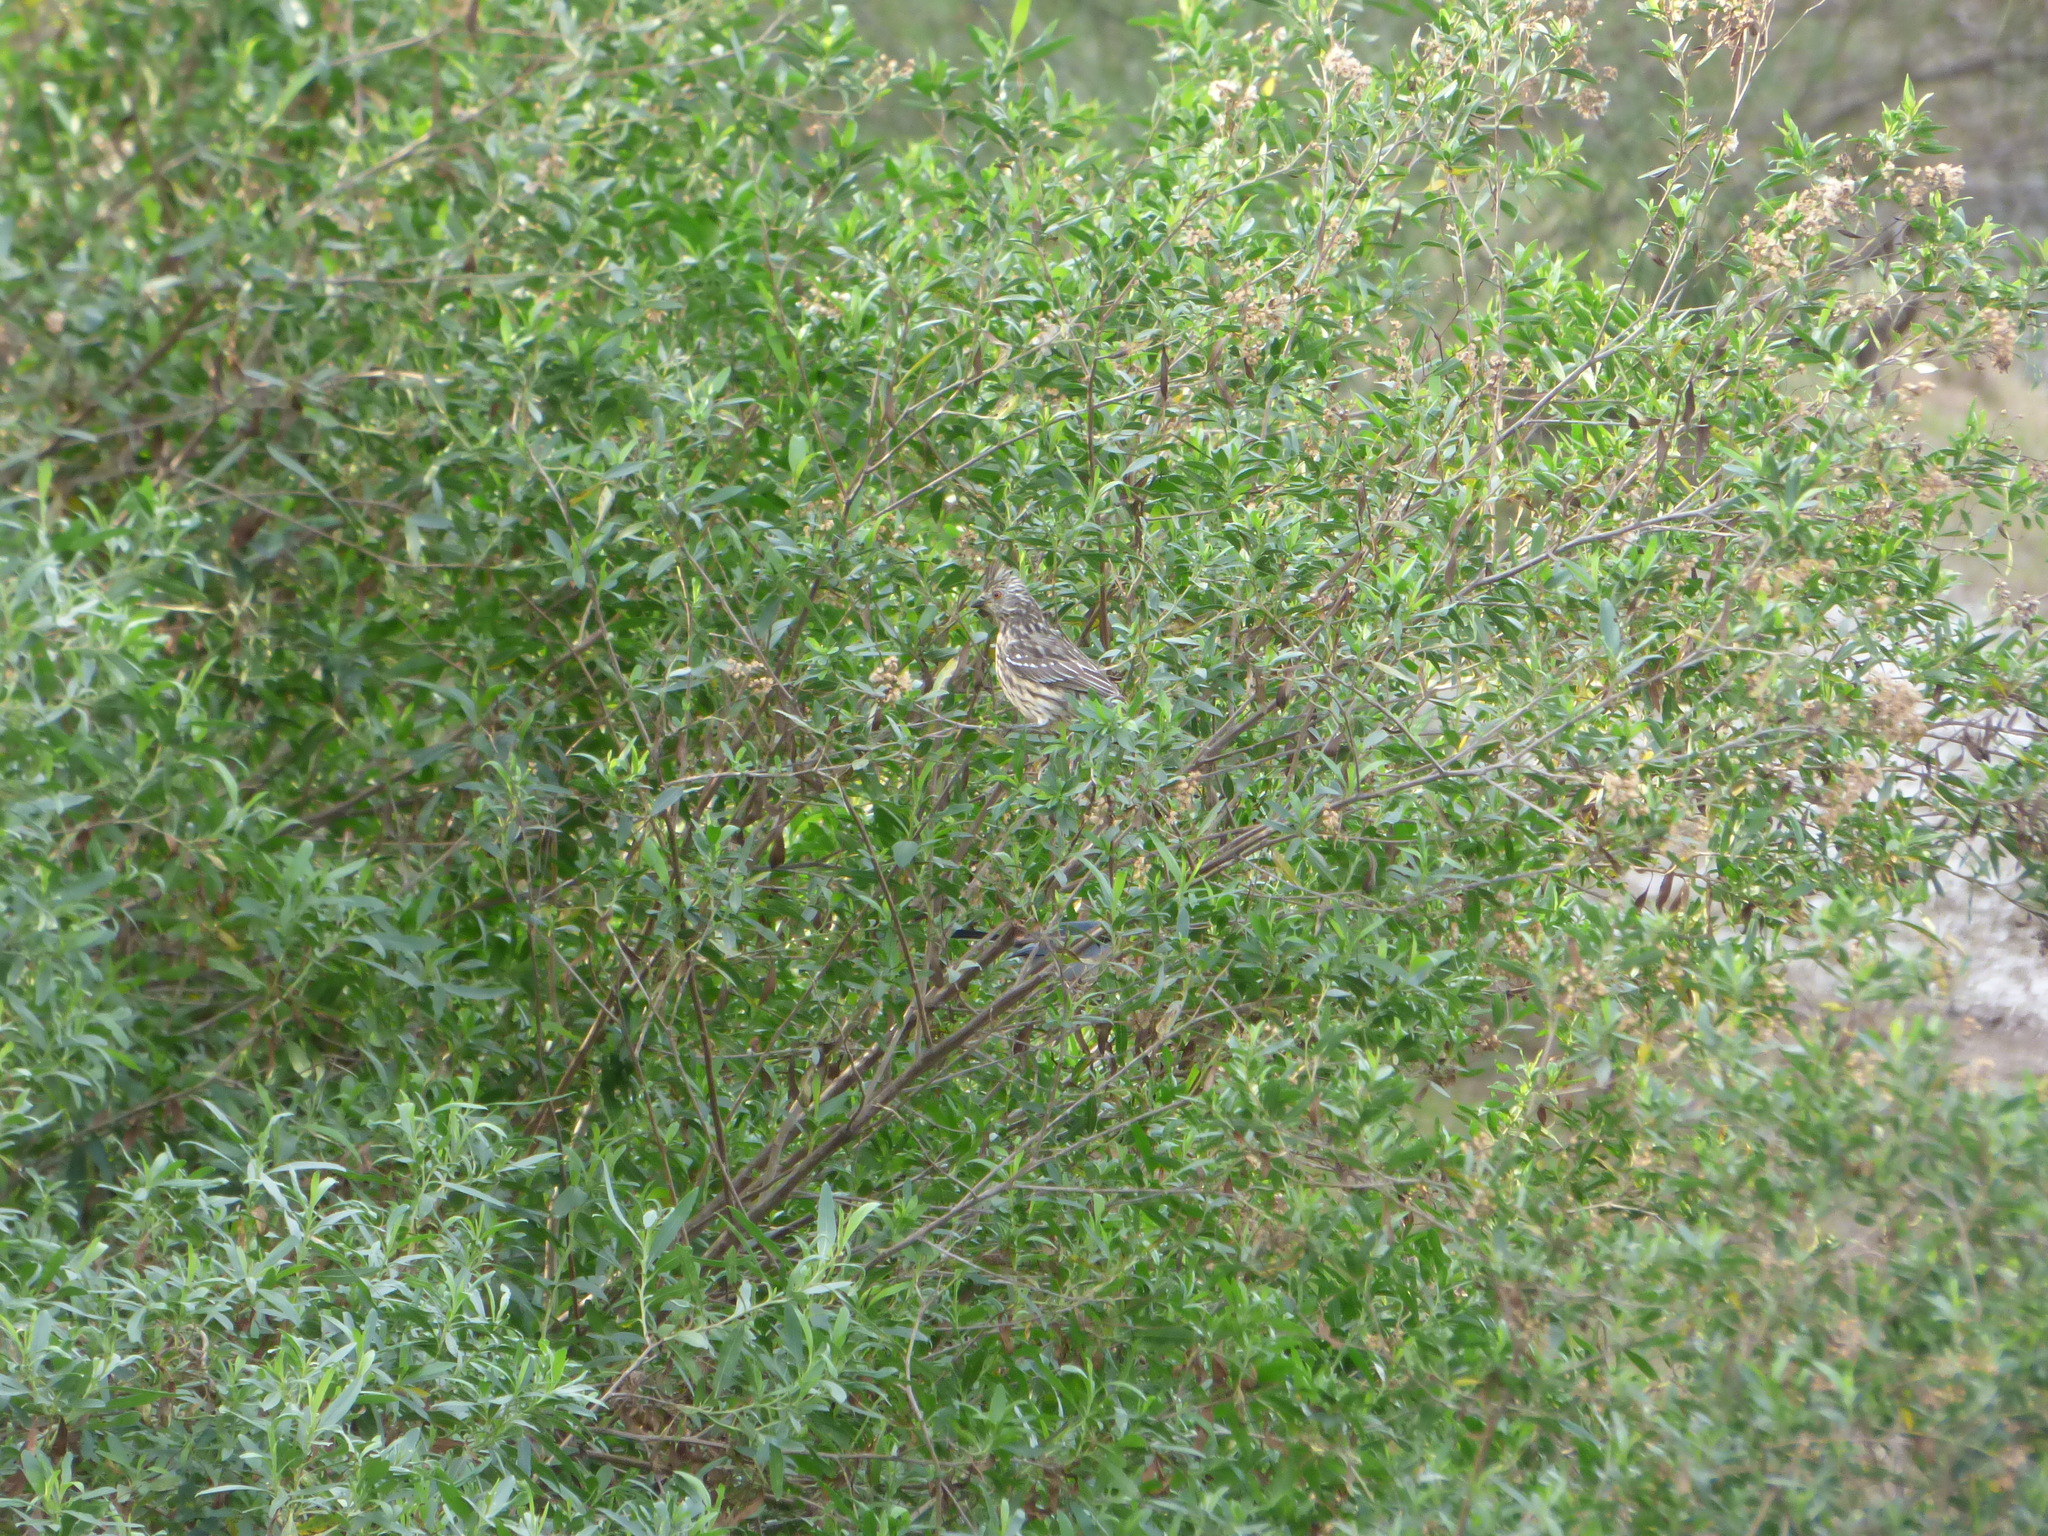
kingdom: Animalia
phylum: Chordata
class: Aves
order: Passeriformes
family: Cotingidae
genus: Phytotoma
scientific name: Phytotoma rutila
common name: White-tipped plantcutter
